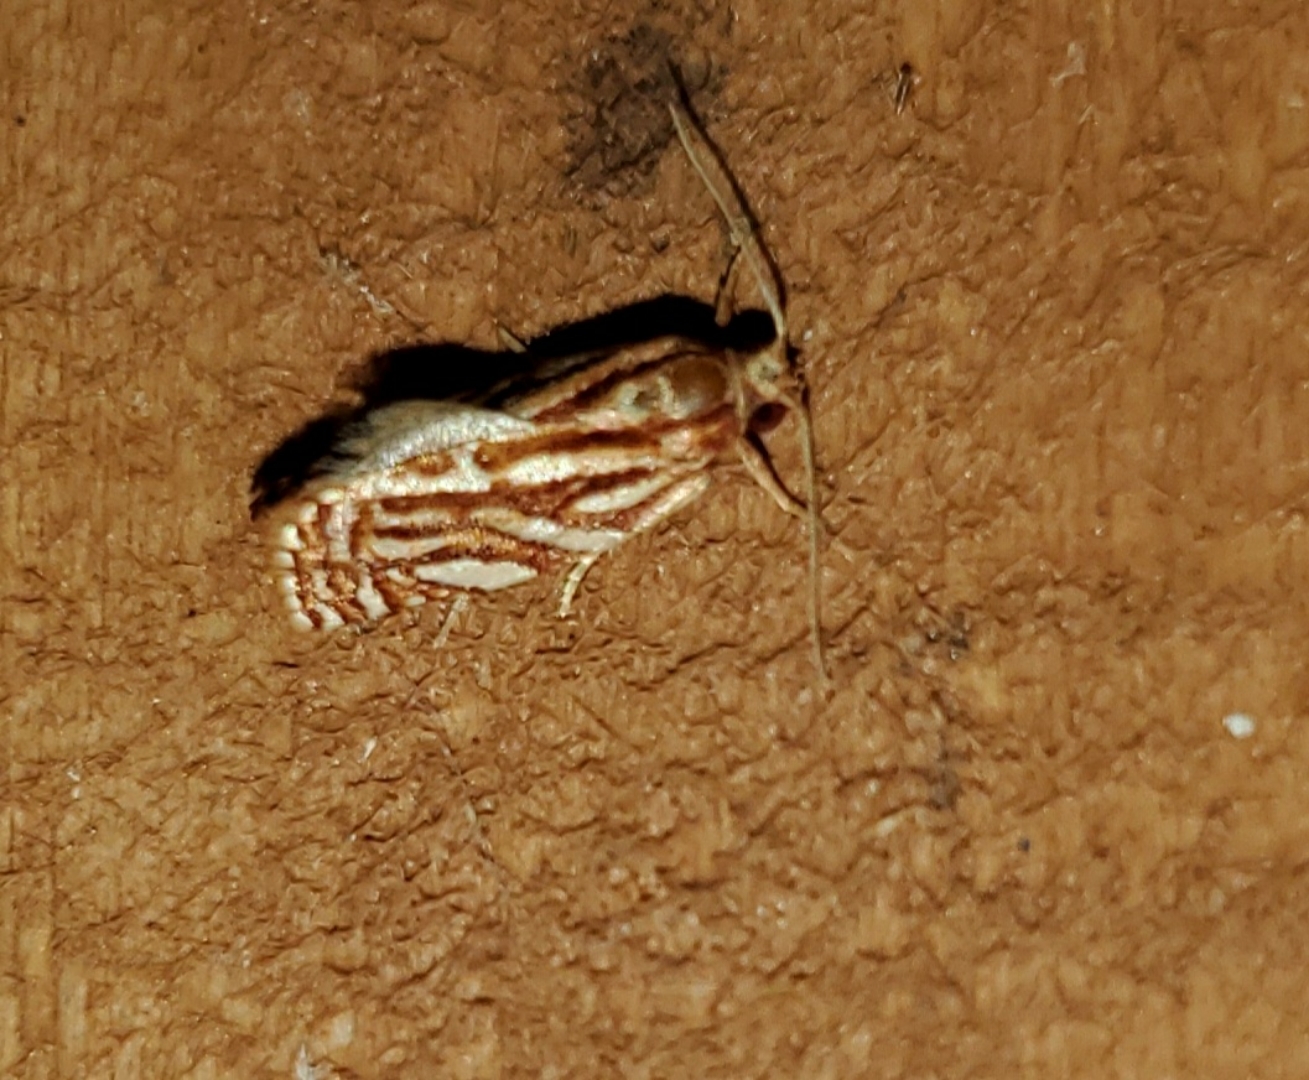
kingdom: Animalia
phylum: Arthropoda
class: Insecta
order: Lepidoptera
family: Tortricidae
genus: Choristoneura
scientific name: Choristoneura argentifasciata
